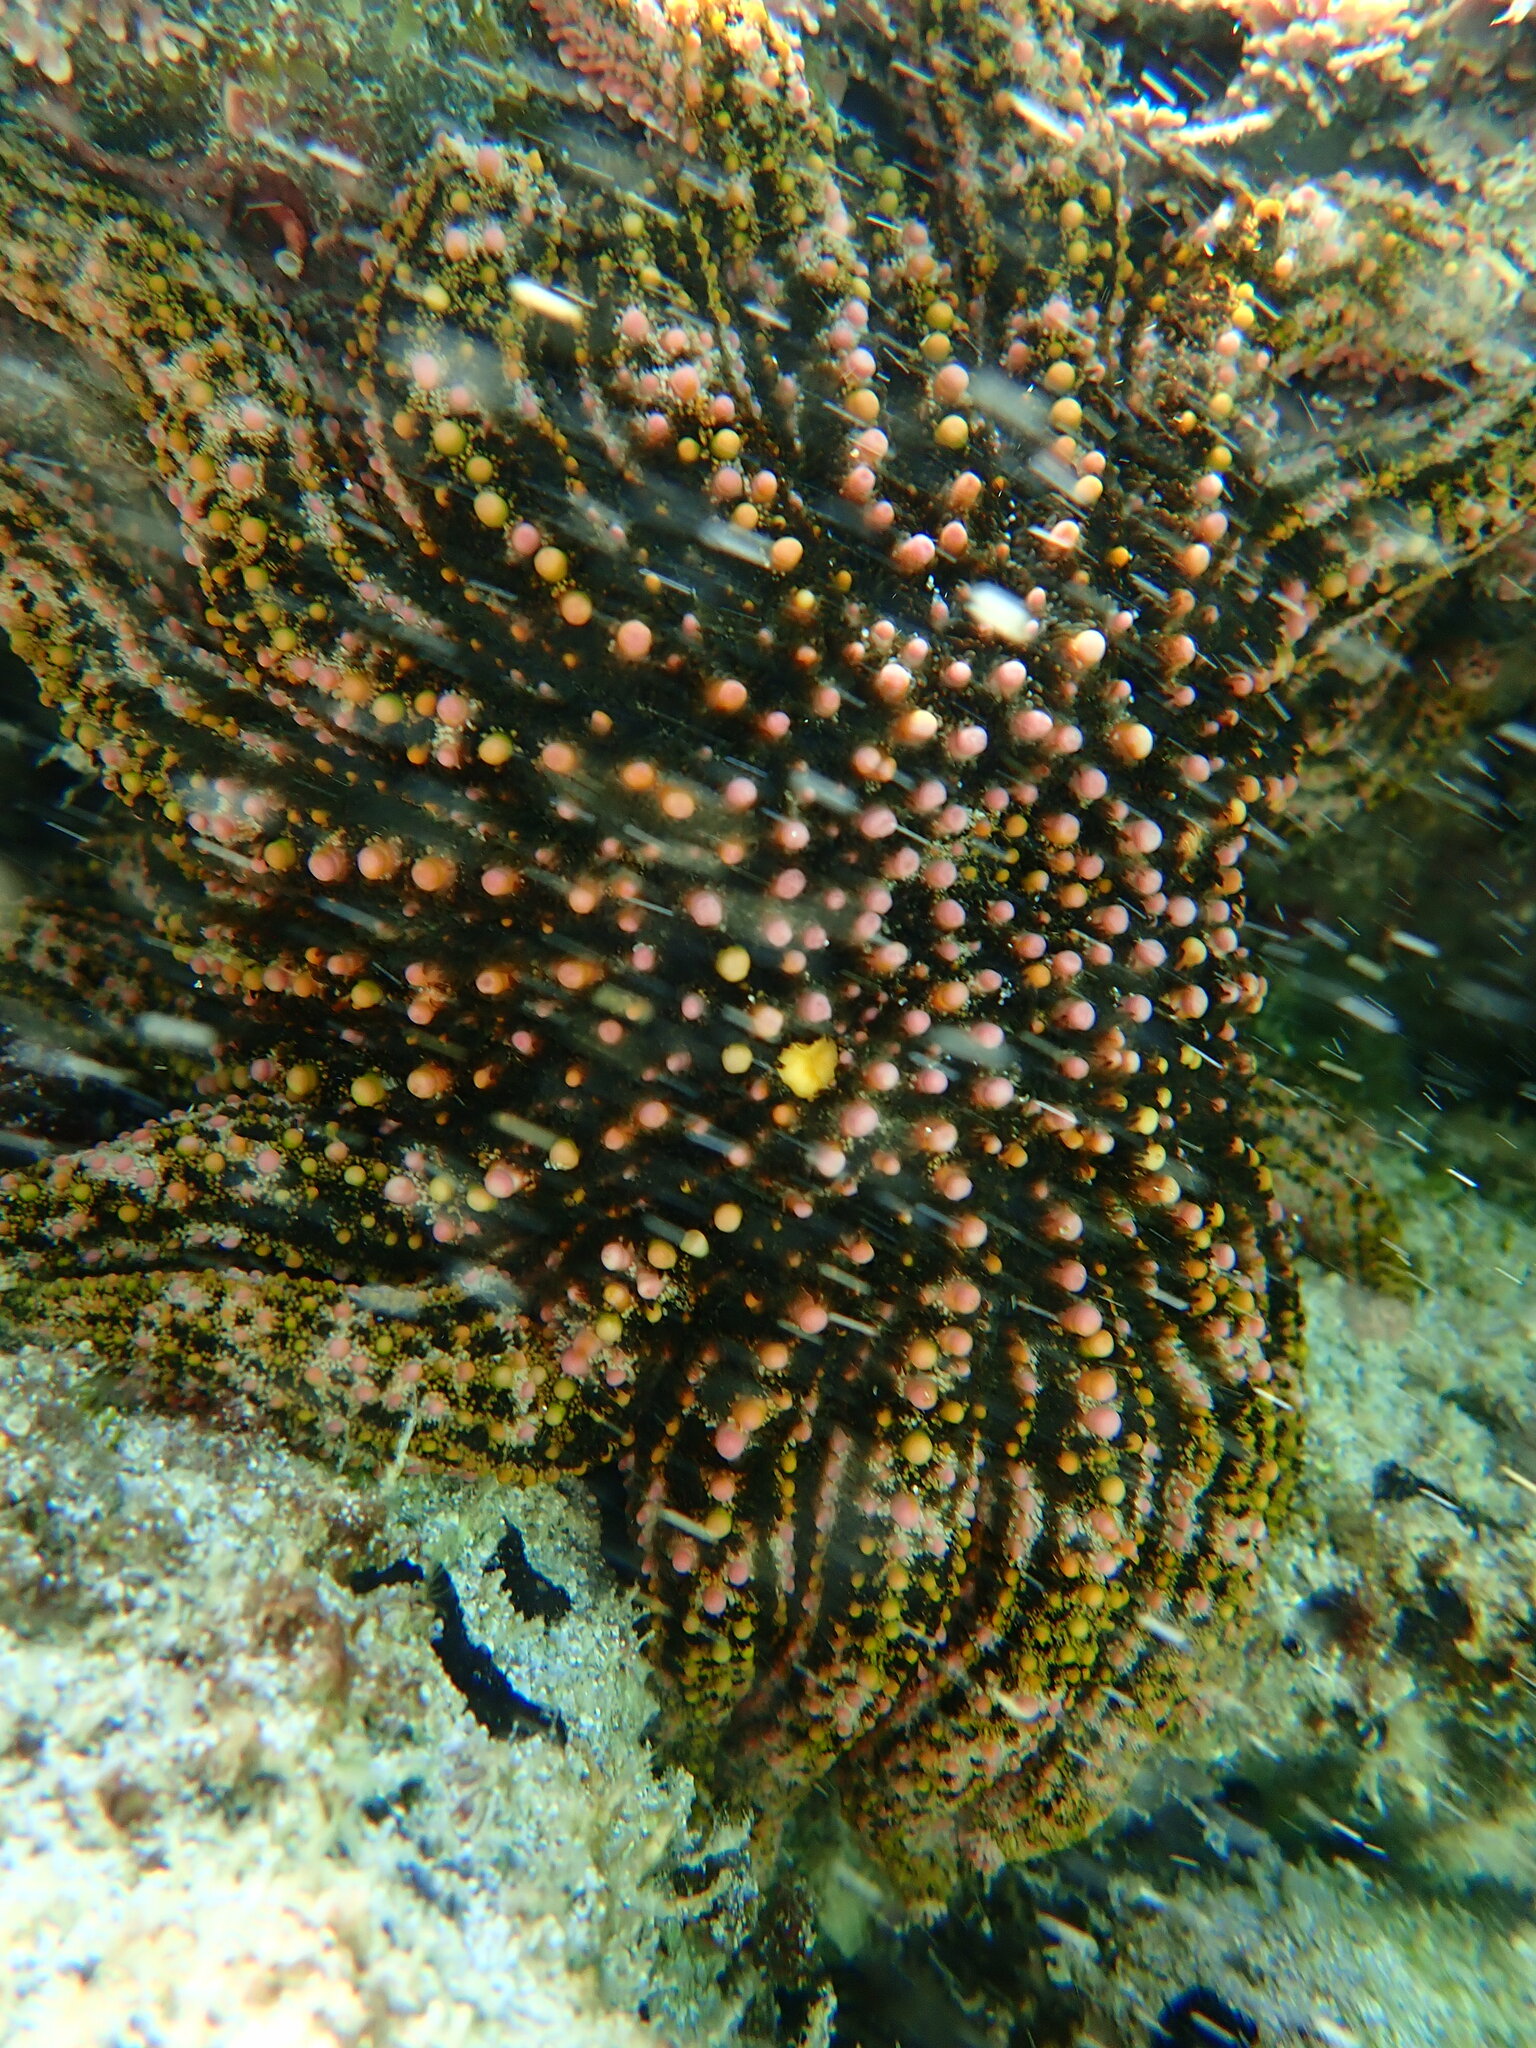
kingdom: Animalia
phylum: Echinodermata
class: Asteroidea
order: Forcipulatida
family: Heliasteridae
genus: Heliaster
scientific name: Heliaster kubiniji
